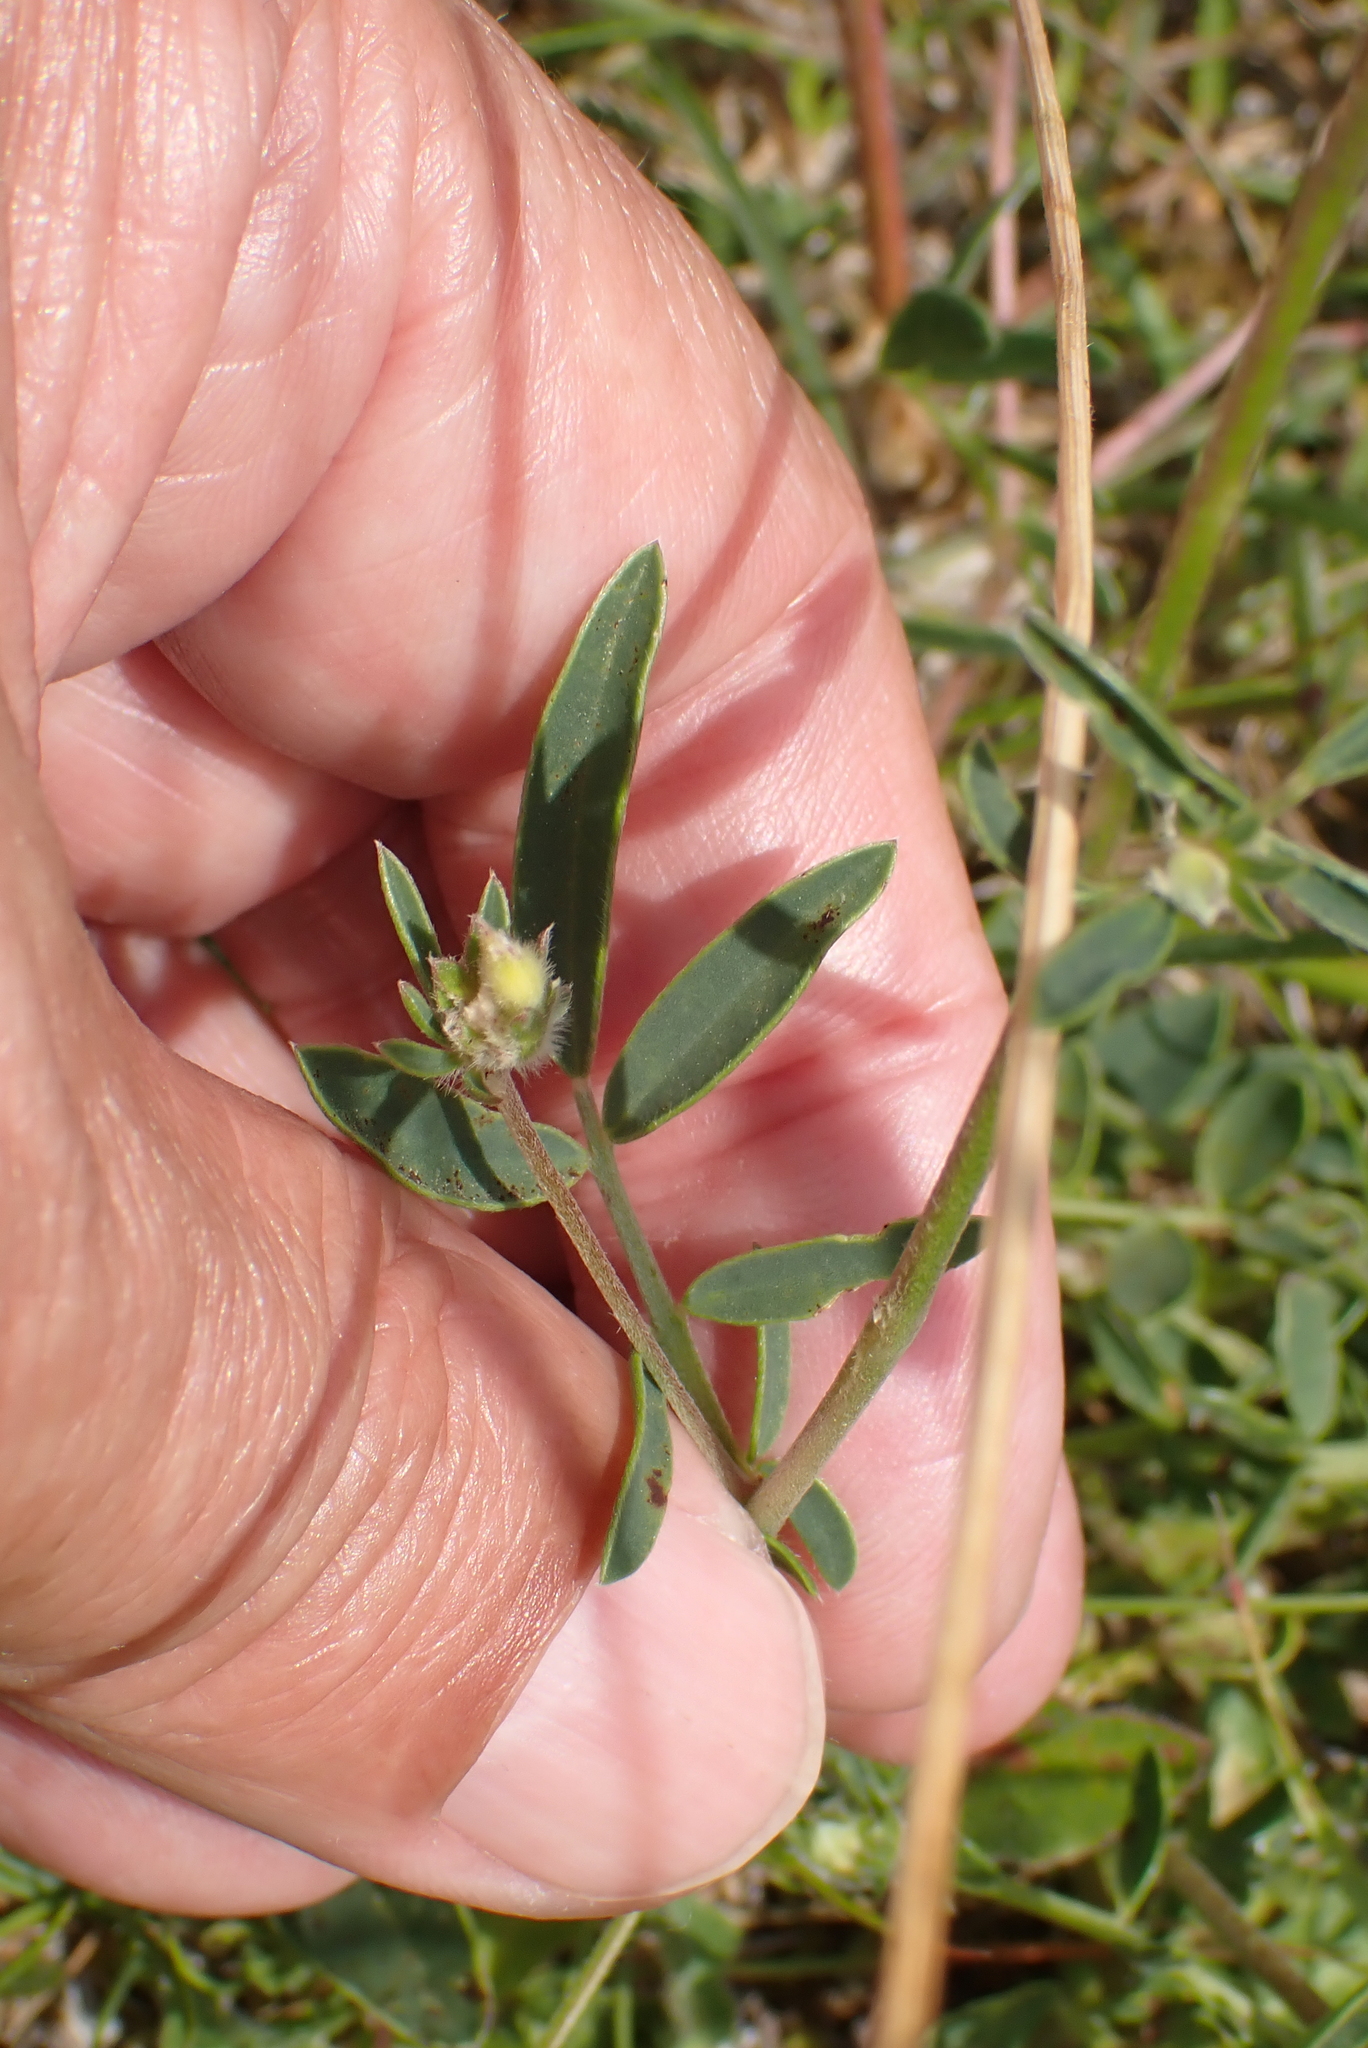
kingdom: Plantae
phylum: Tracheophyta
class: Magnoliopsida
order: Fabales
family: Fabaceae
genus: Anthyllis
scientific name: Anthyllis vulneraria
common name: Kidney vetch
